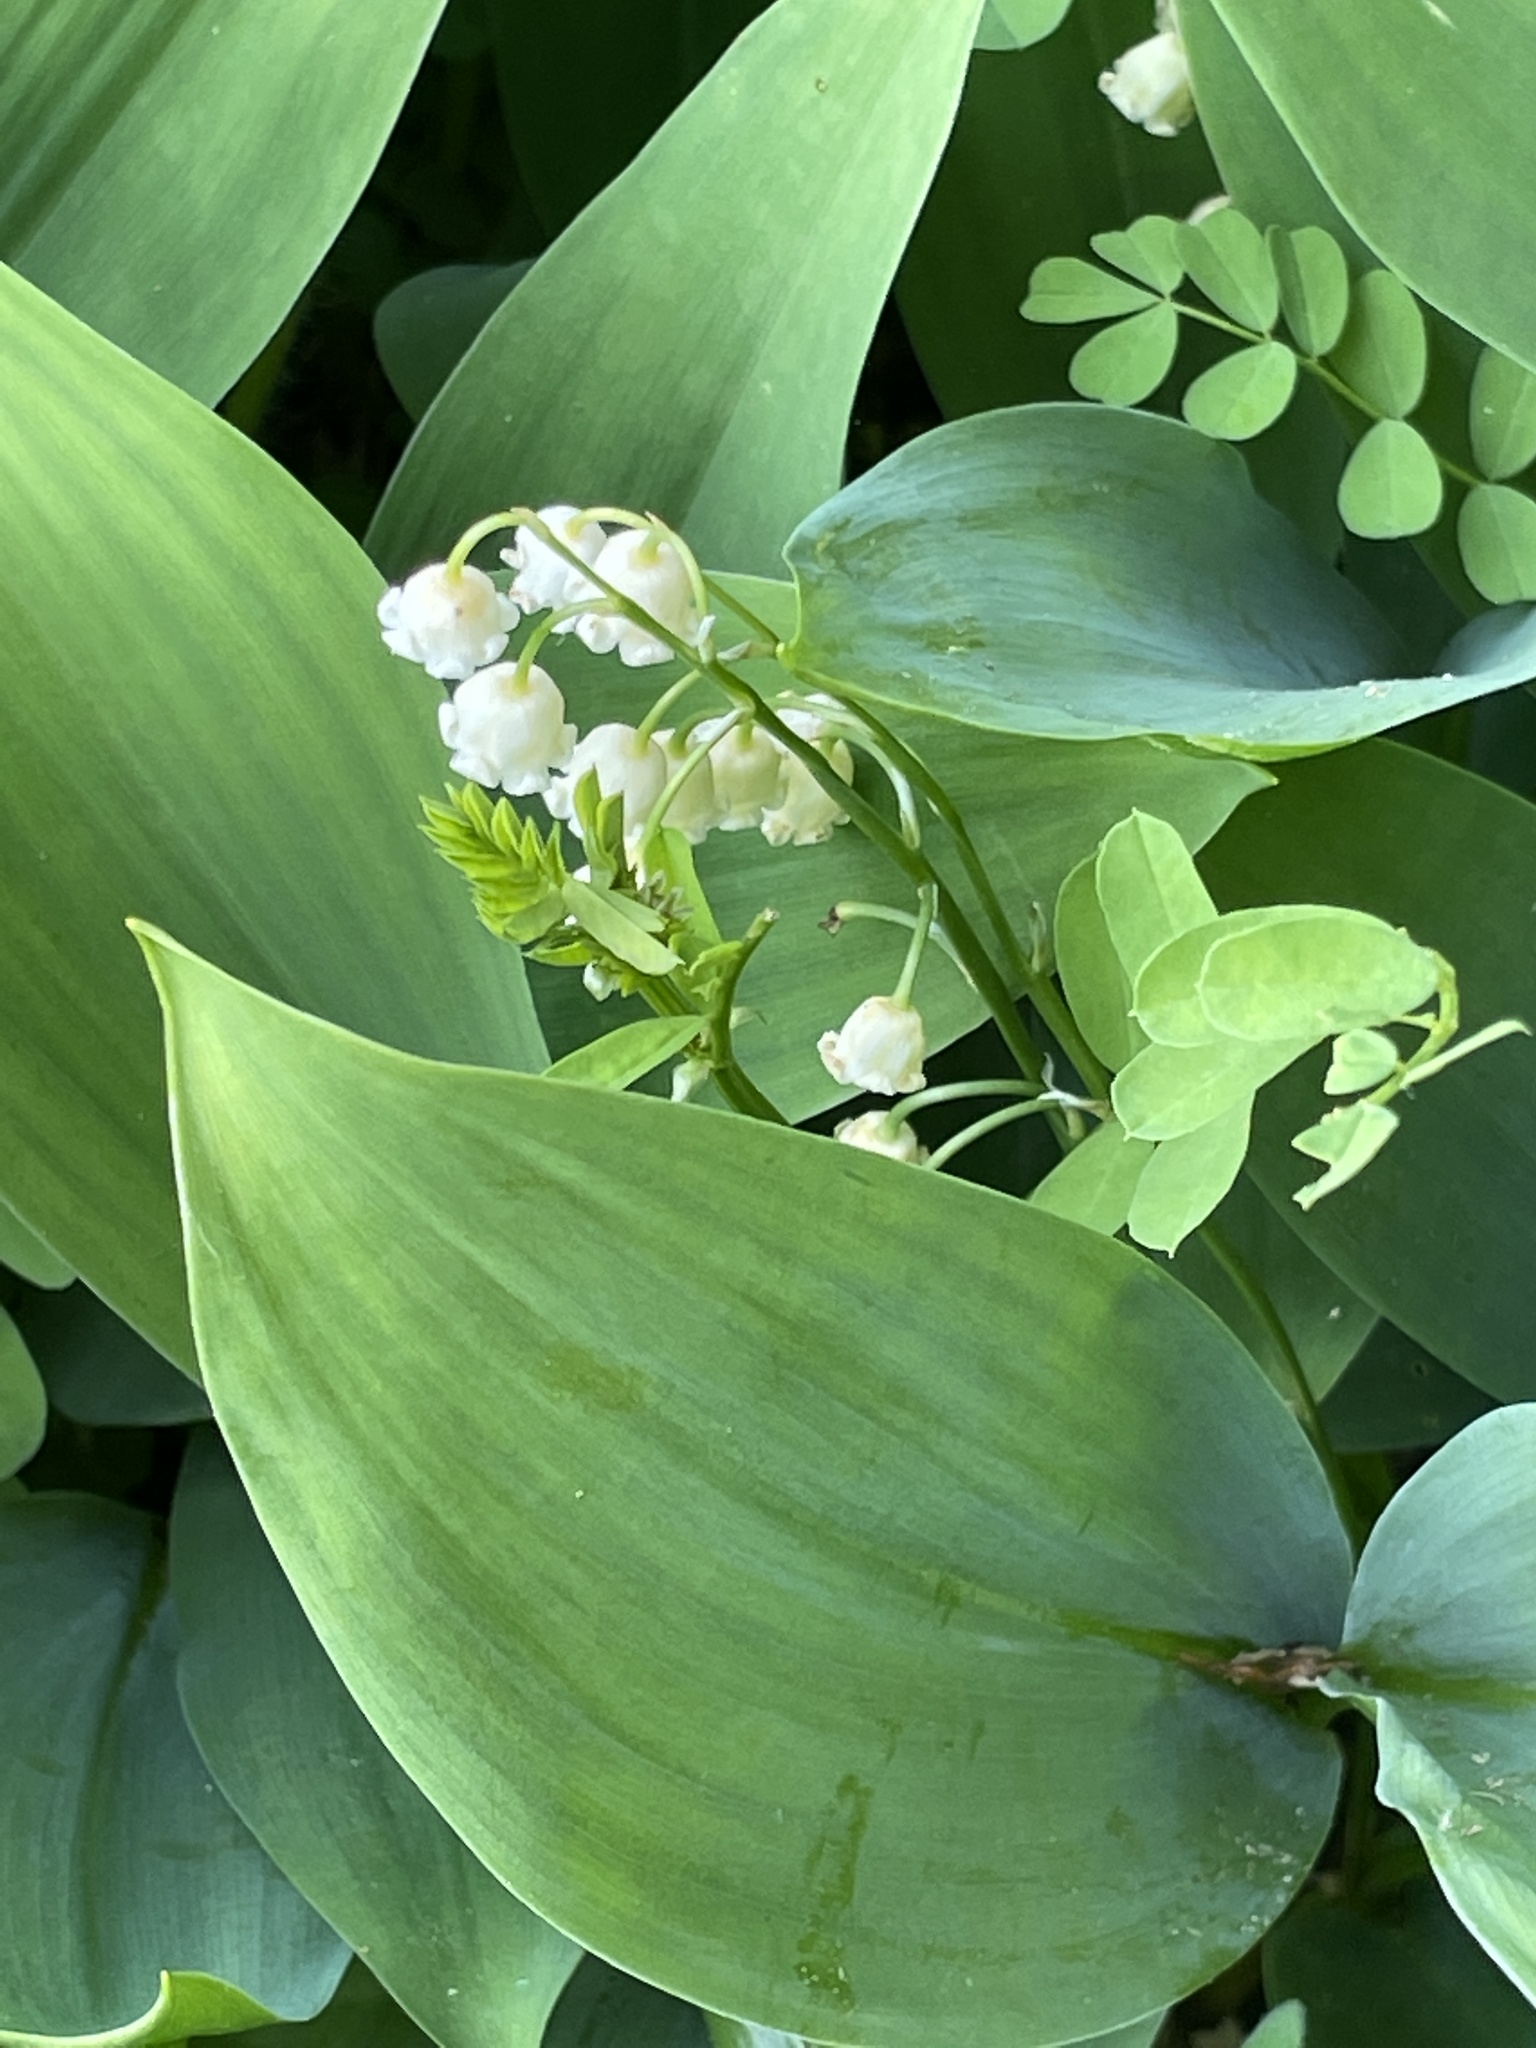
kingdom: Plantae
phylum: Tracheophyta
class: Liliopsida
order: Asparagales
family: Asparagaceae
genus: Convallaria
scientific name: Convallaria majalis
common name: Lily-of-the-valley
